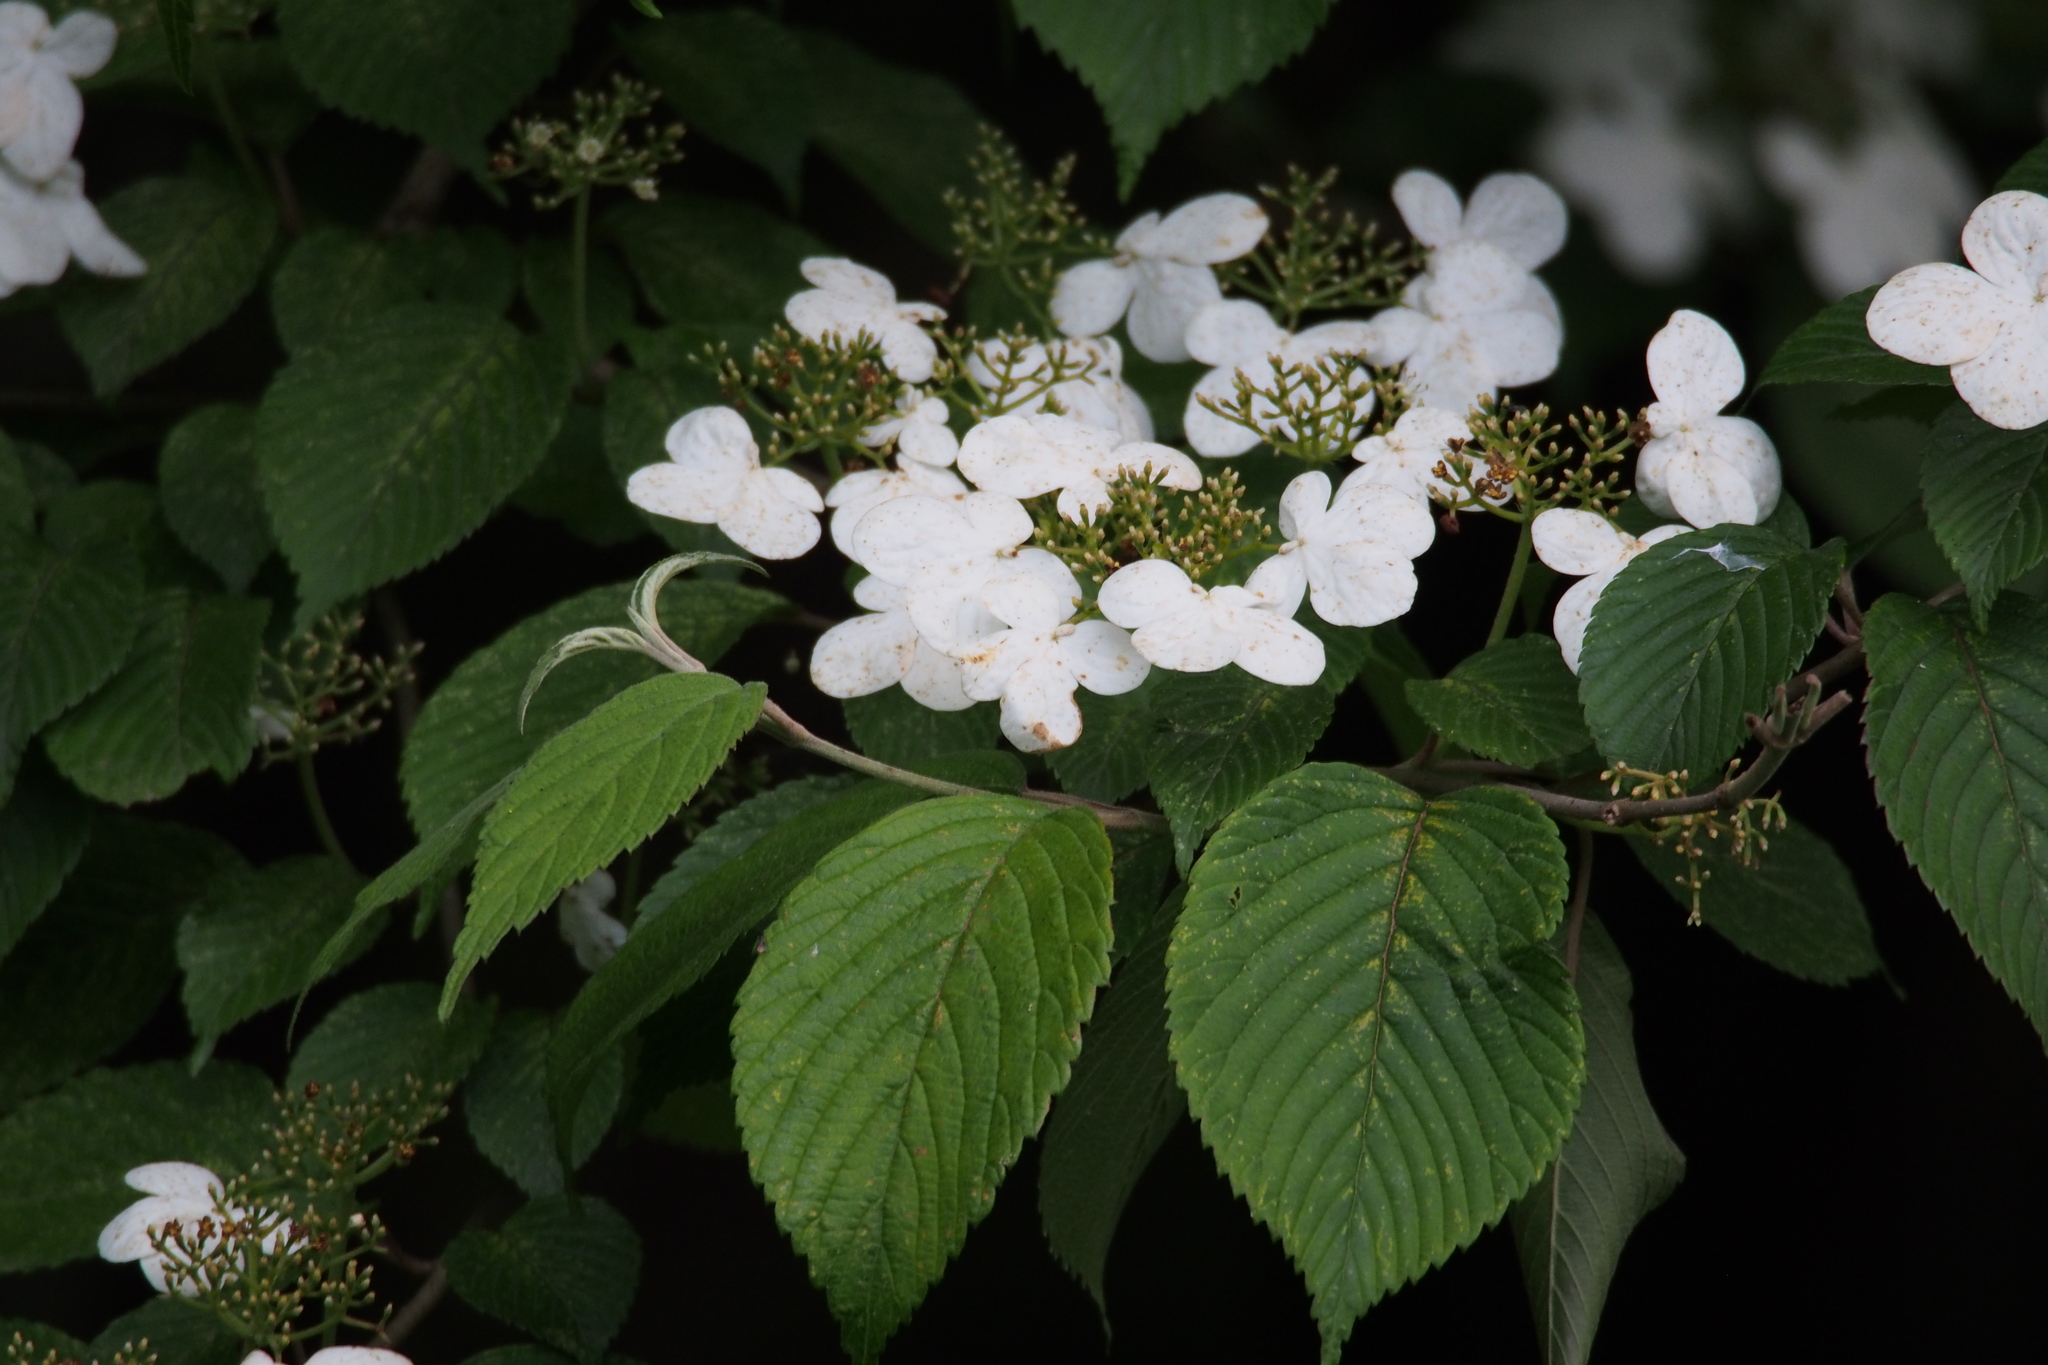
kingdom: Plantae
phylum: Tracheophyta
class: Magnoliopsida
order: Dipsacales
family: Viburnaceae
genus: Viburnum
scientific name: Viburnum plicatum
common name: Japanese snowball
